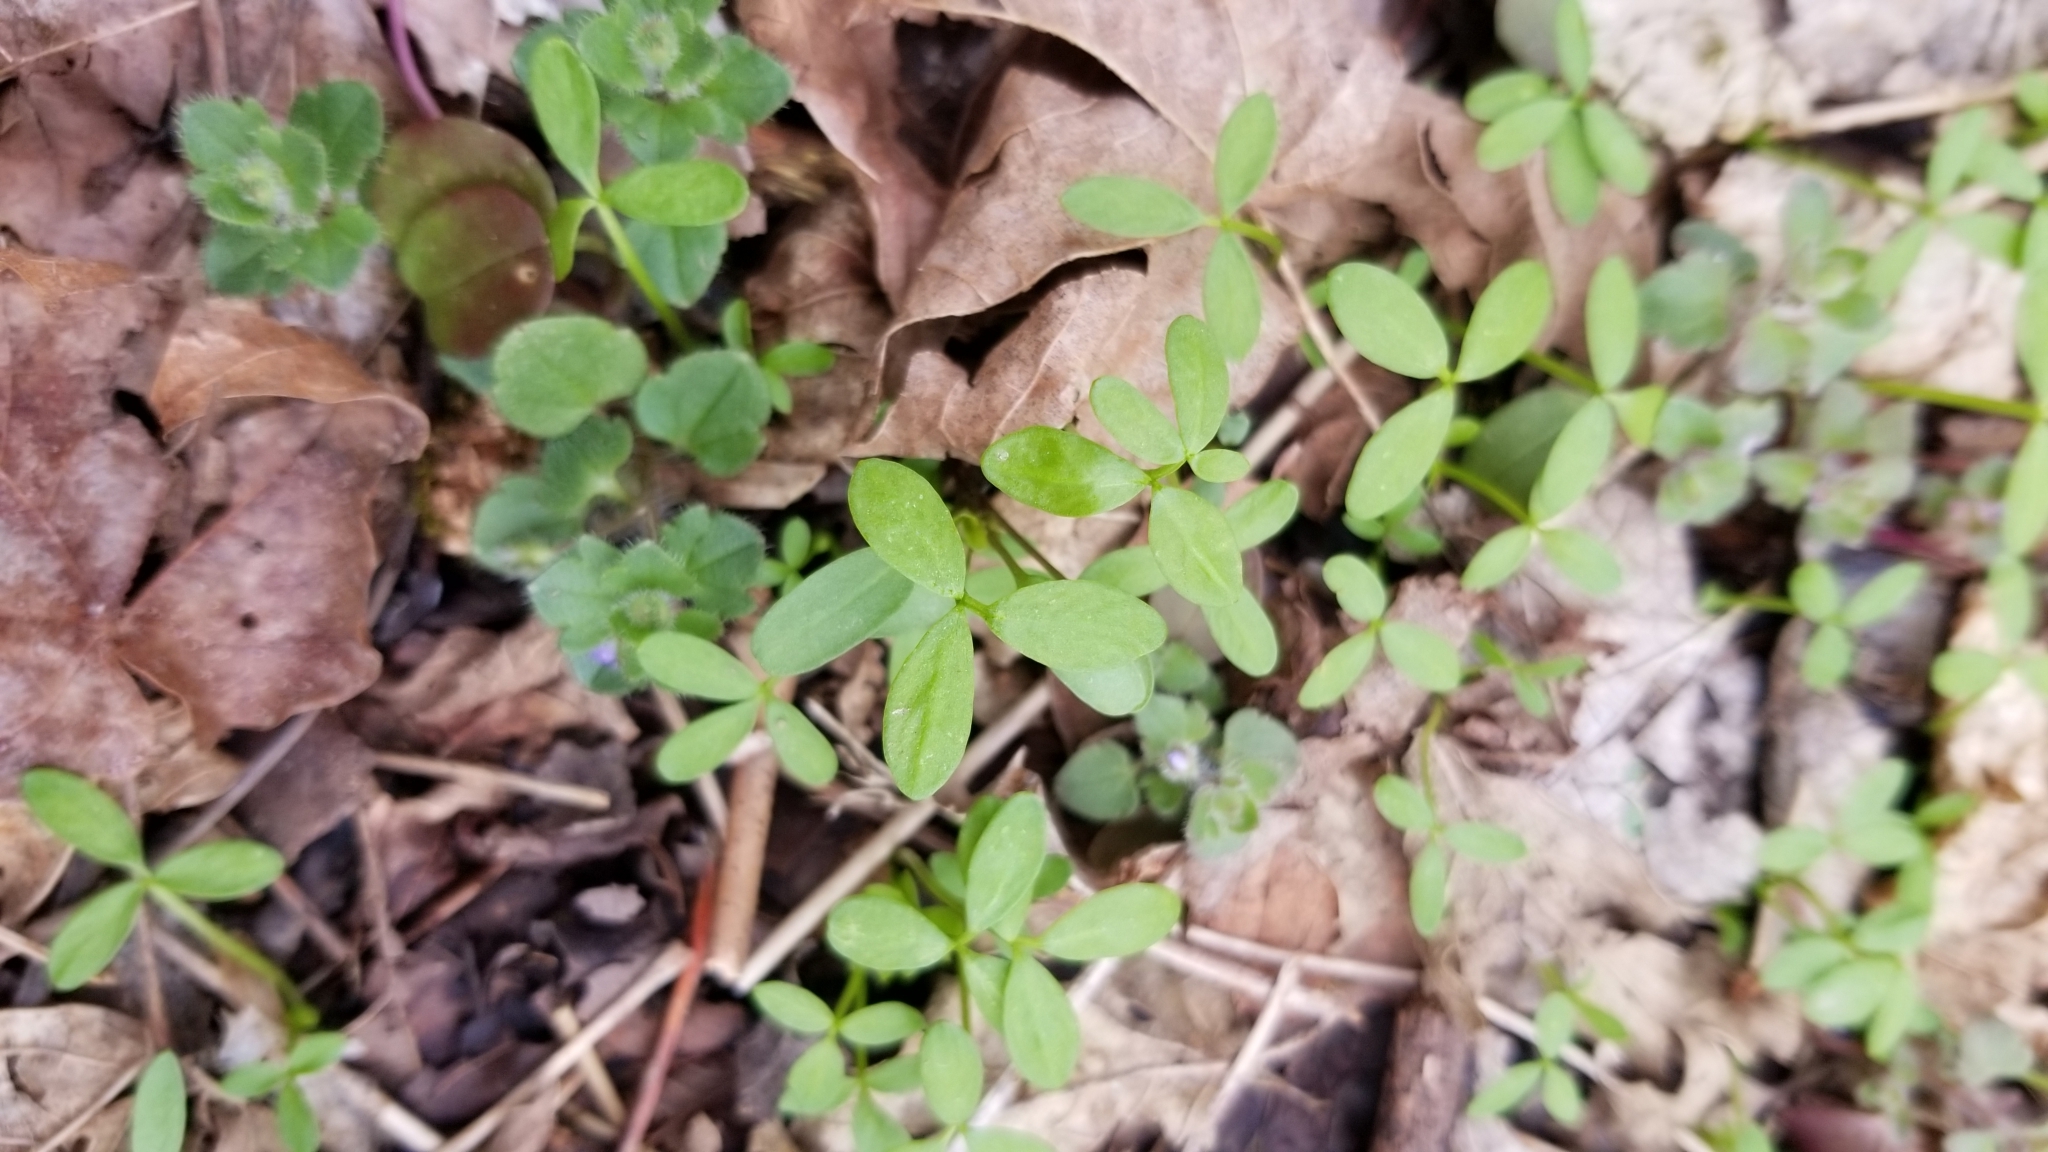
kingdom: Plantae
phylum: Tracheophyta
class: Magnoliopsida
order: Brassicales
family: Limnanthaceae
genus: Floerkea
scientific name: Floerkea proserpinacoides
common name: False mermaid
